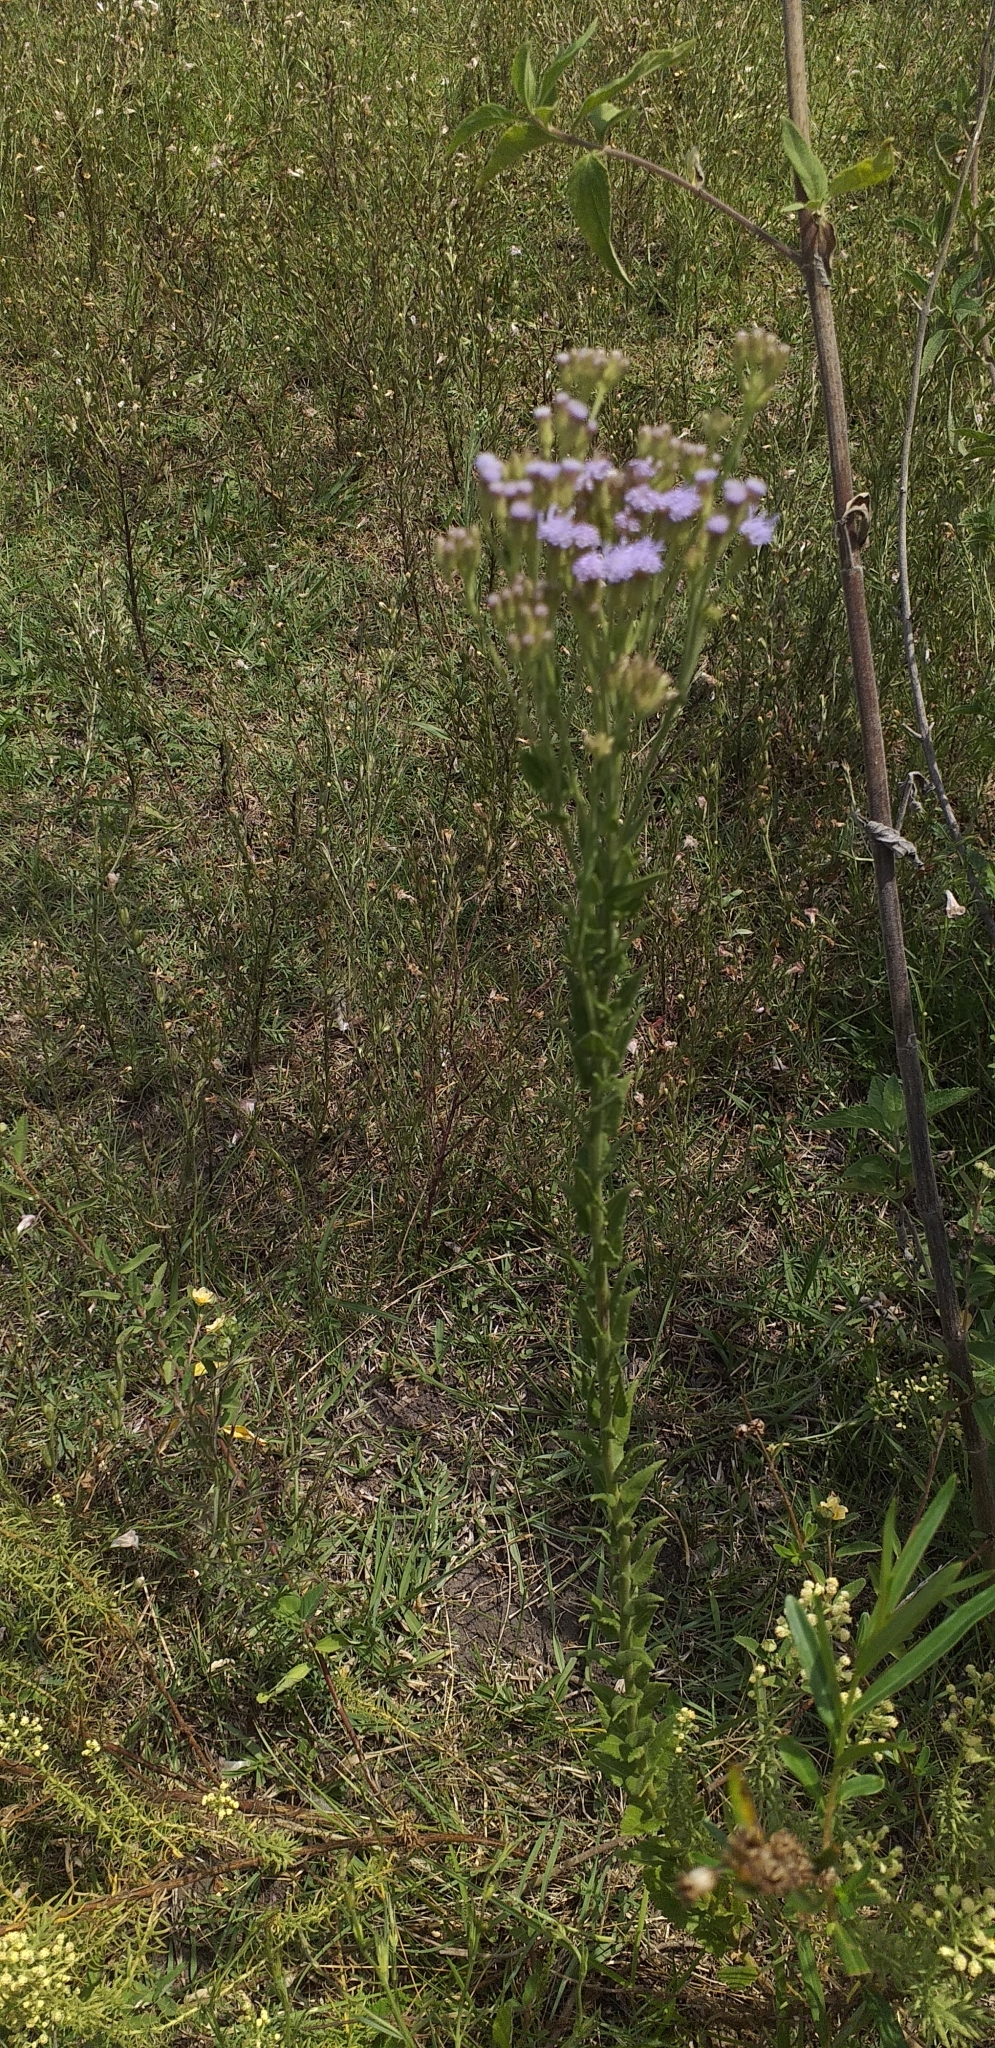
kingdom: Plantae
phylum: Tracheophyta
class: Magnoliopsida
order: Asterales
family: Asteraceae
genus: Chromolaena
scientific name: Chromolaena hirsuta
